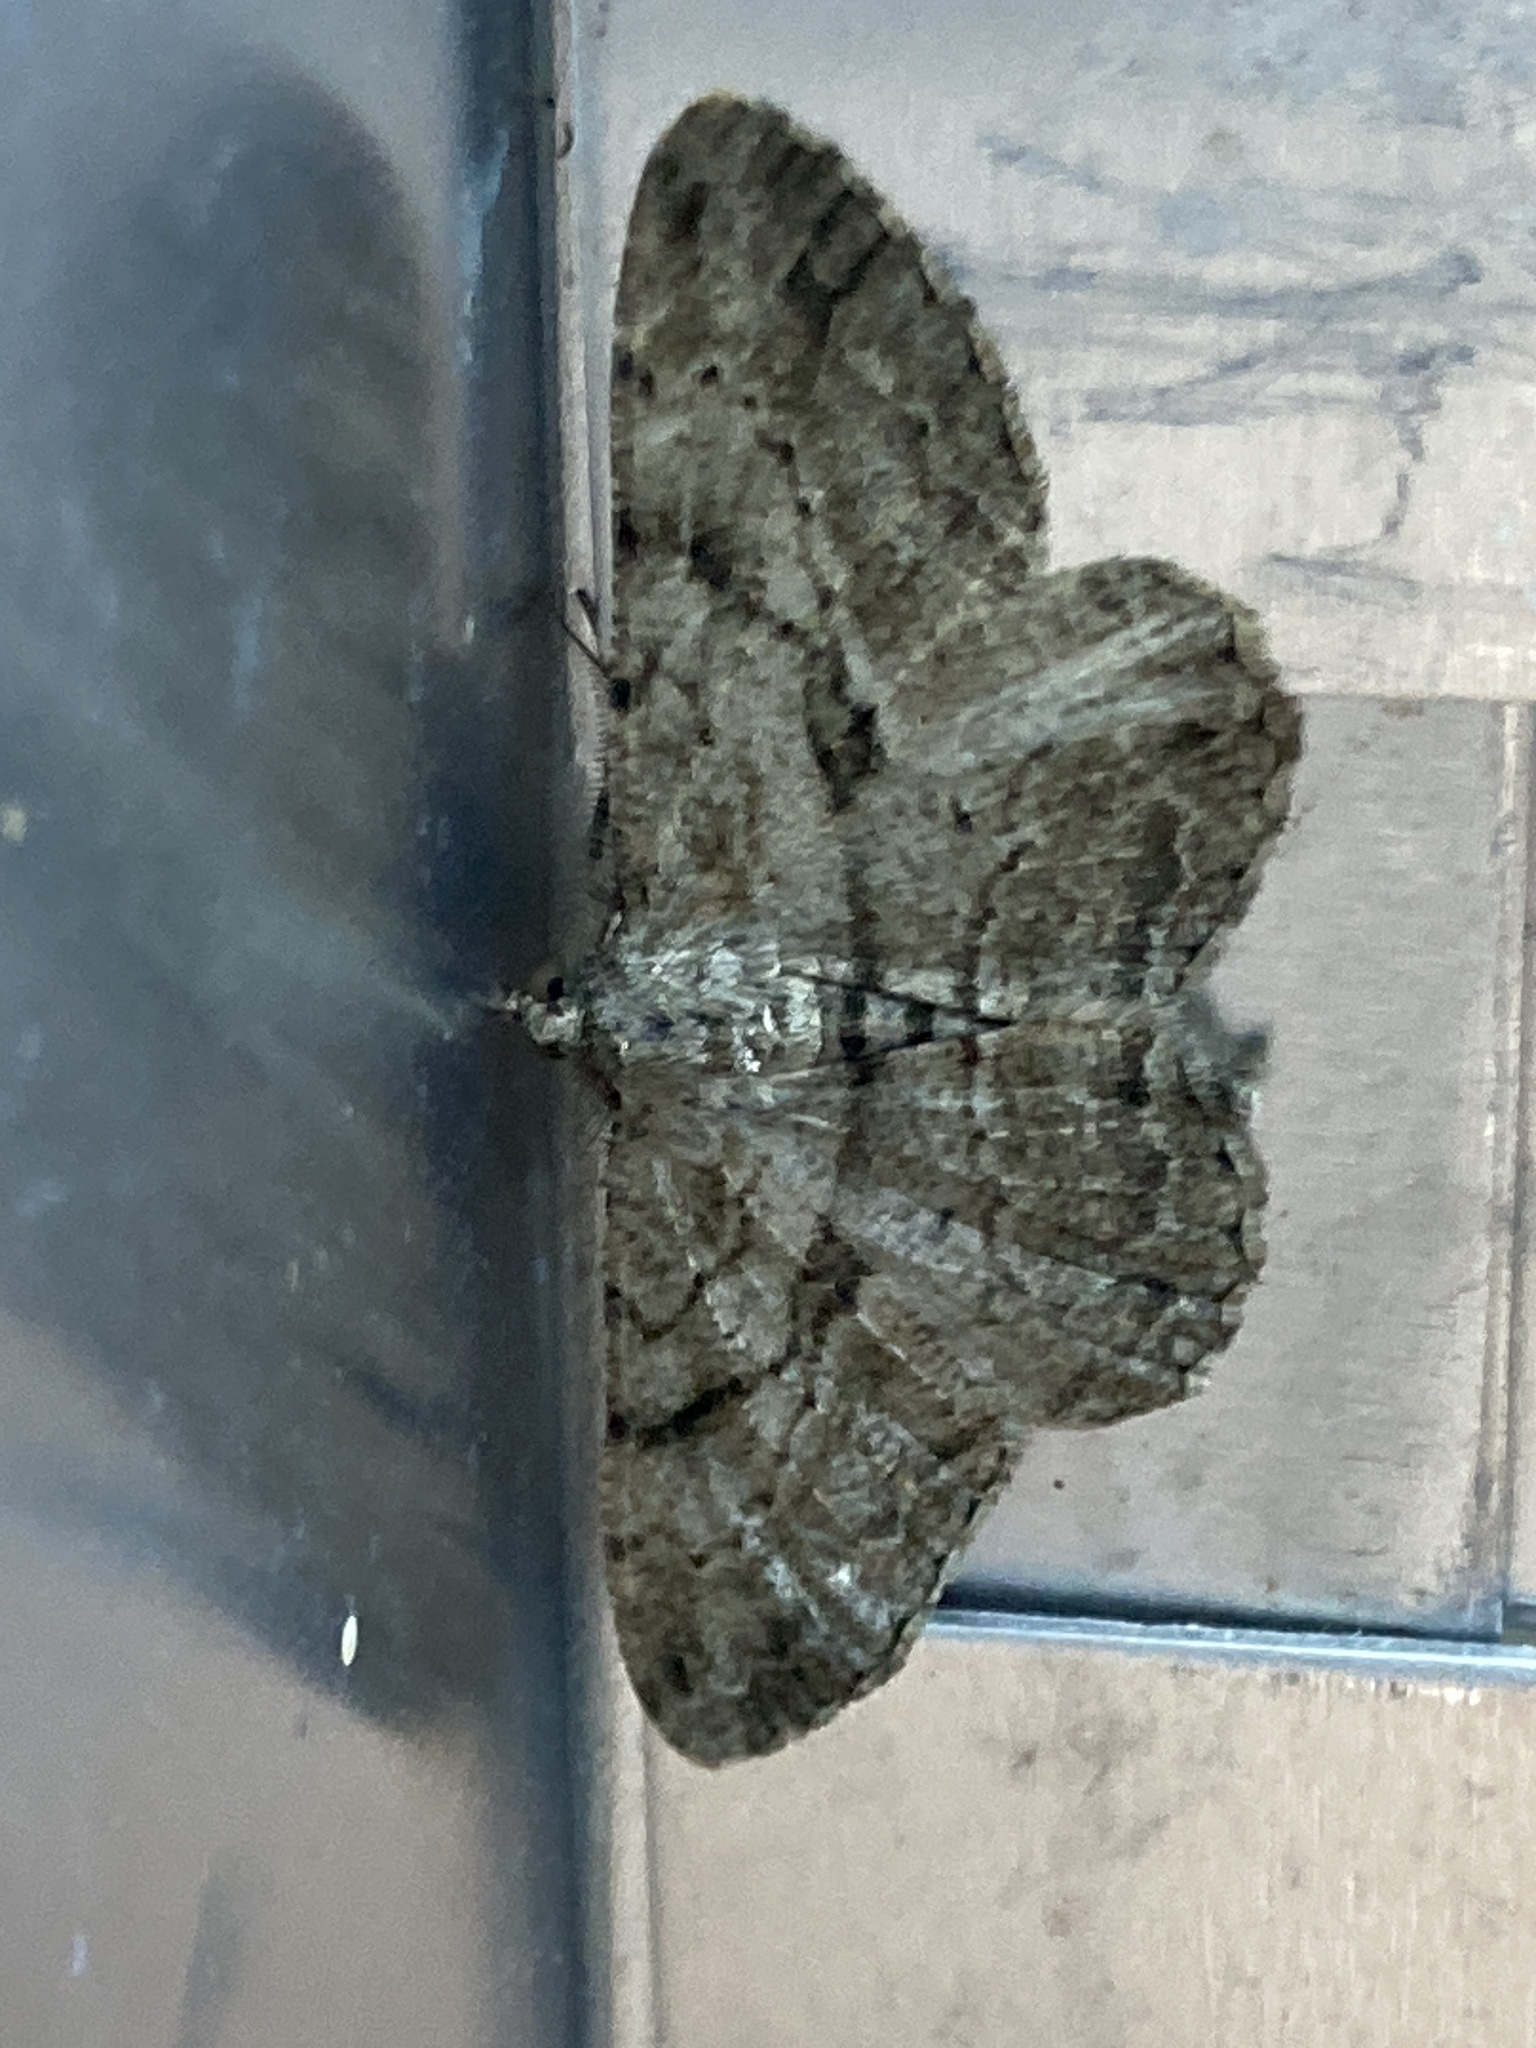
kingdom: Animalia
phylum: Arthropoda
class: Insecta
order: Lepidoptera
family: Geometridae
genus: Peribatodes
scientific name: Peribatodes rhomboidaria
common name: Willow beauty
